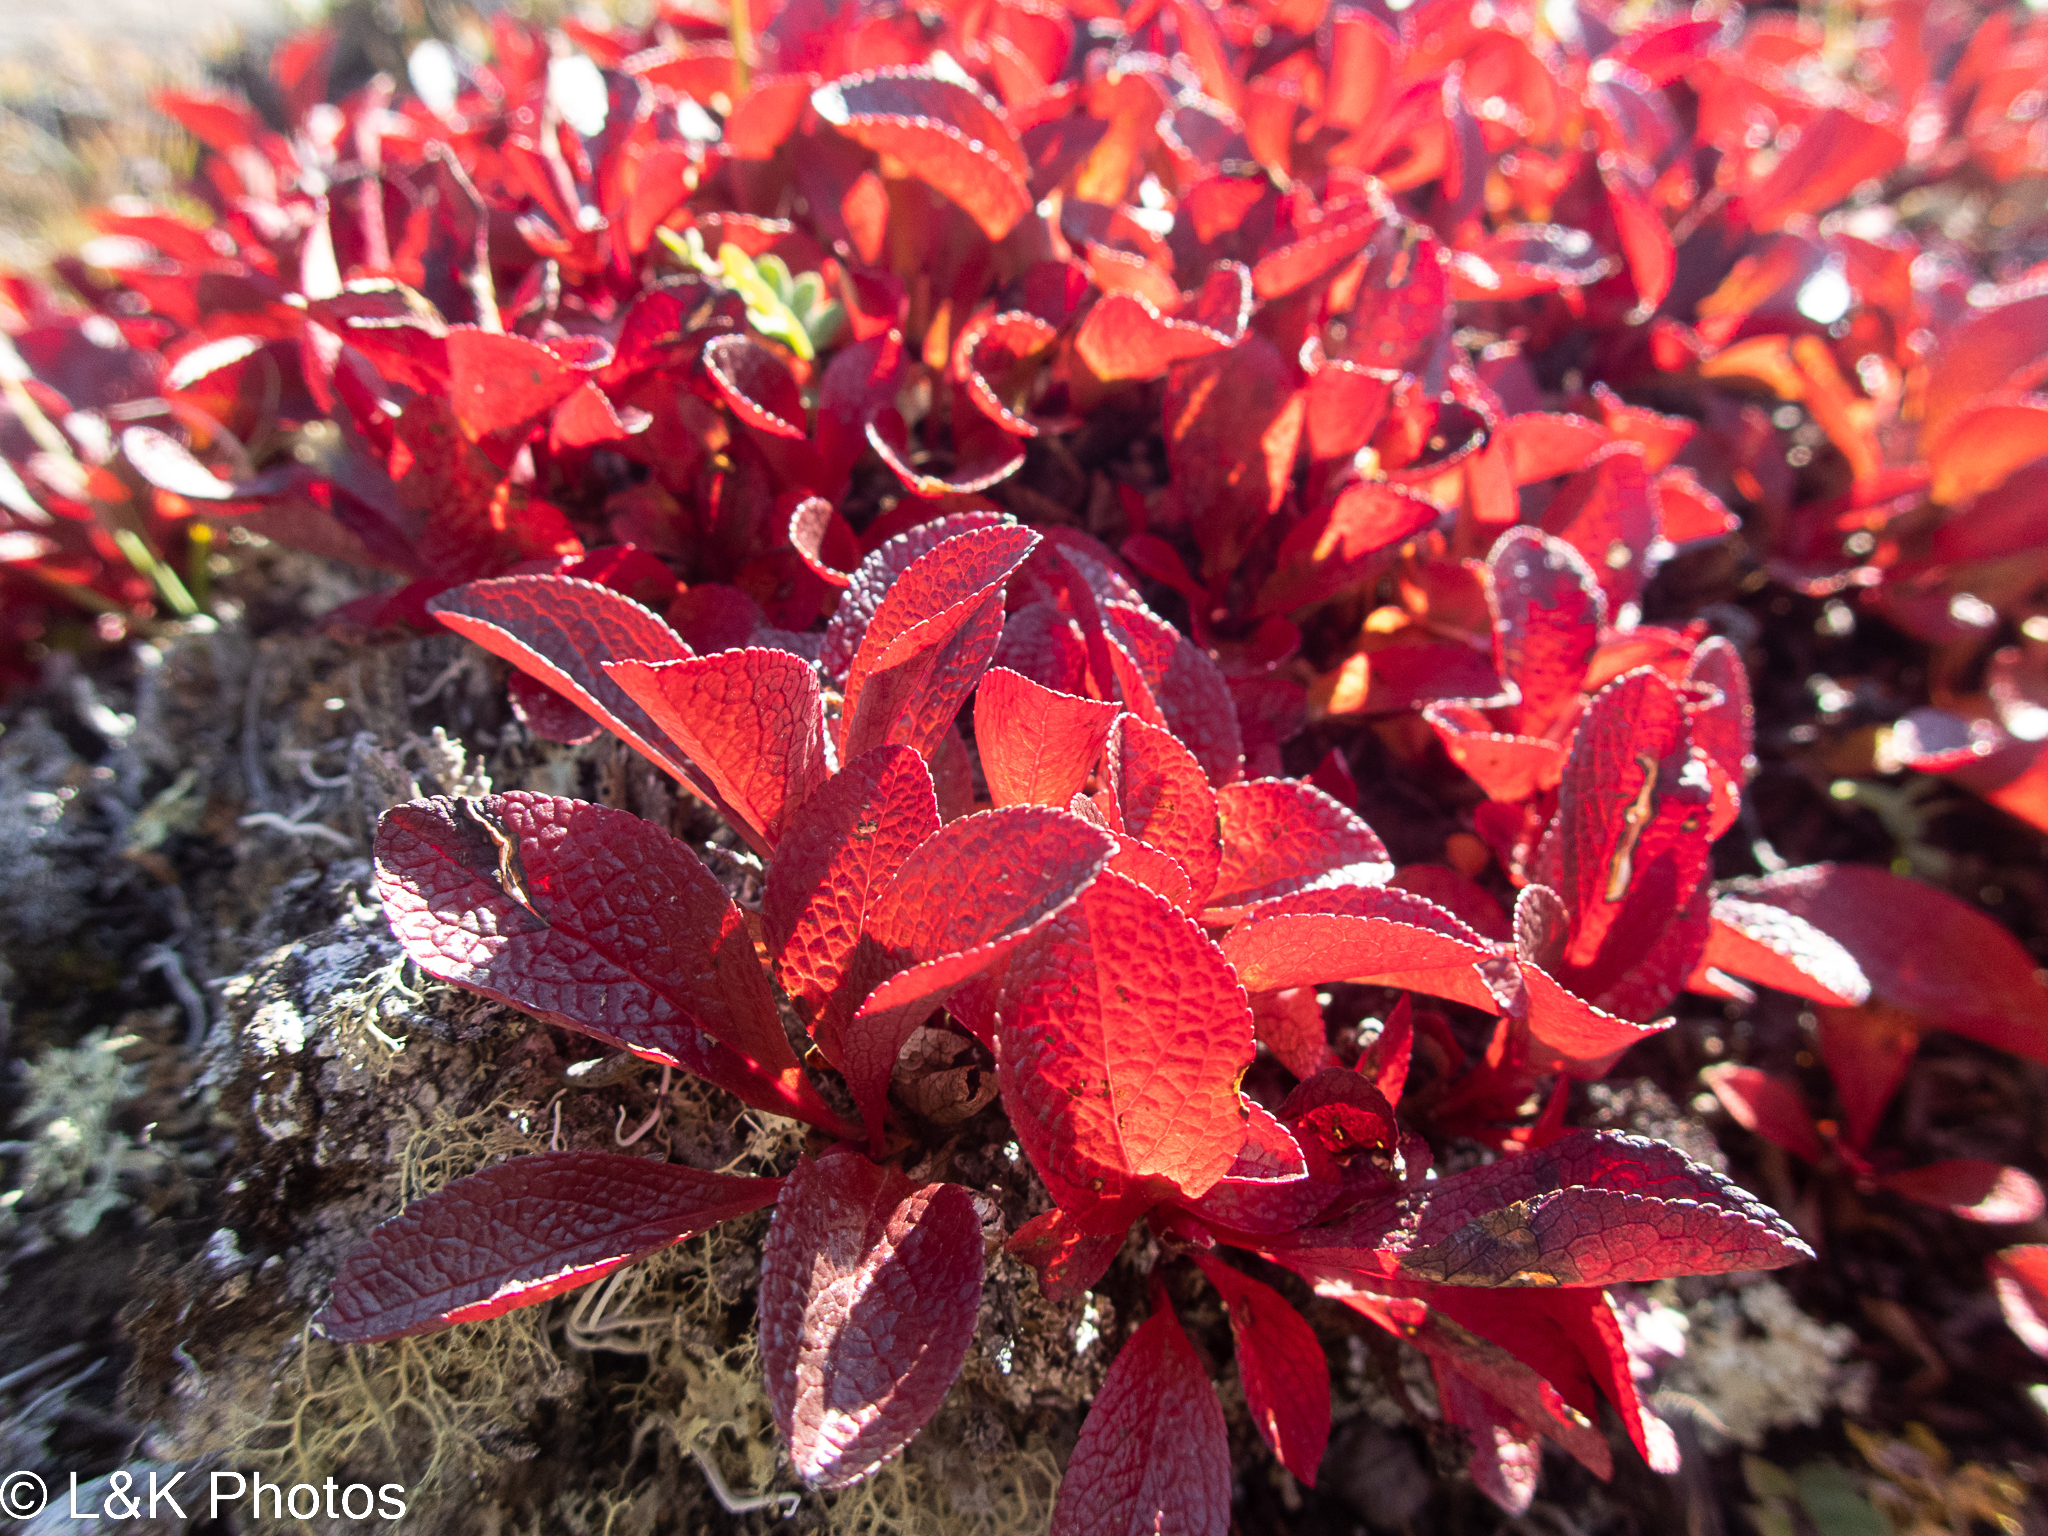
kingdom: Plantae
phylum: Tracheophyta
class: Magnoliopsida
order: Ericales
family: Ericaceae
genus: Arctostaphylos
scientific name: Arctostaphylos rubra
